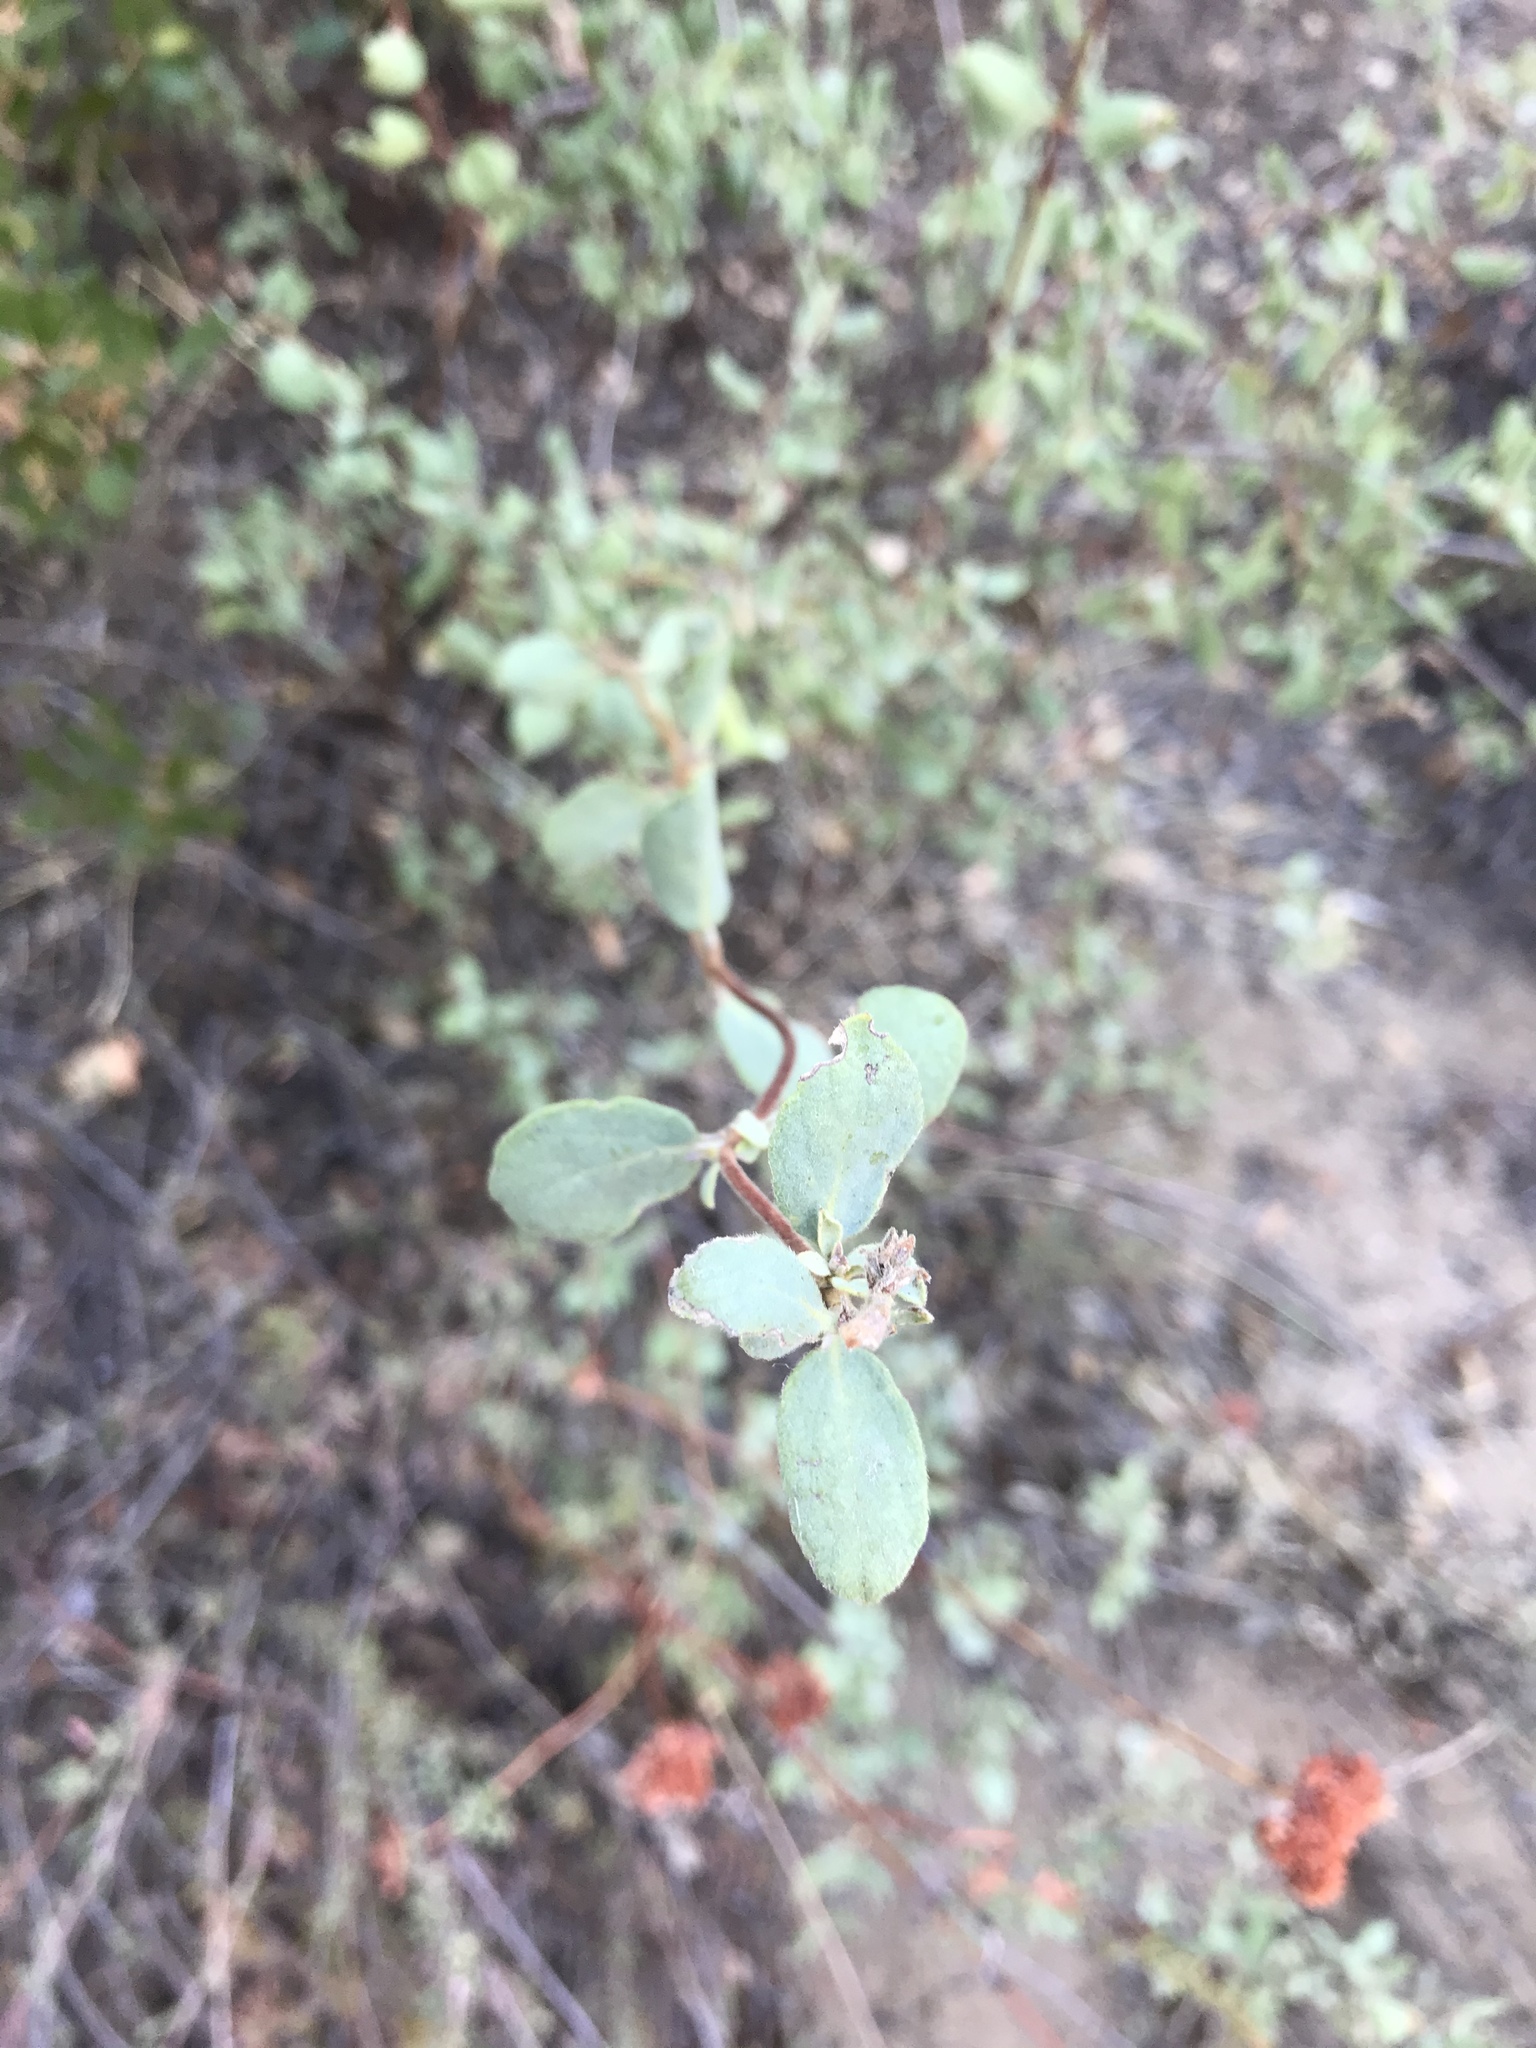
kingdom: Plantae
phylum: Tracheophyta
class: Magnoliopsida
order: Dipsacales
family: Caprifoliaceae
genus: Lonicera
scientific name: Lonicera subspicata
